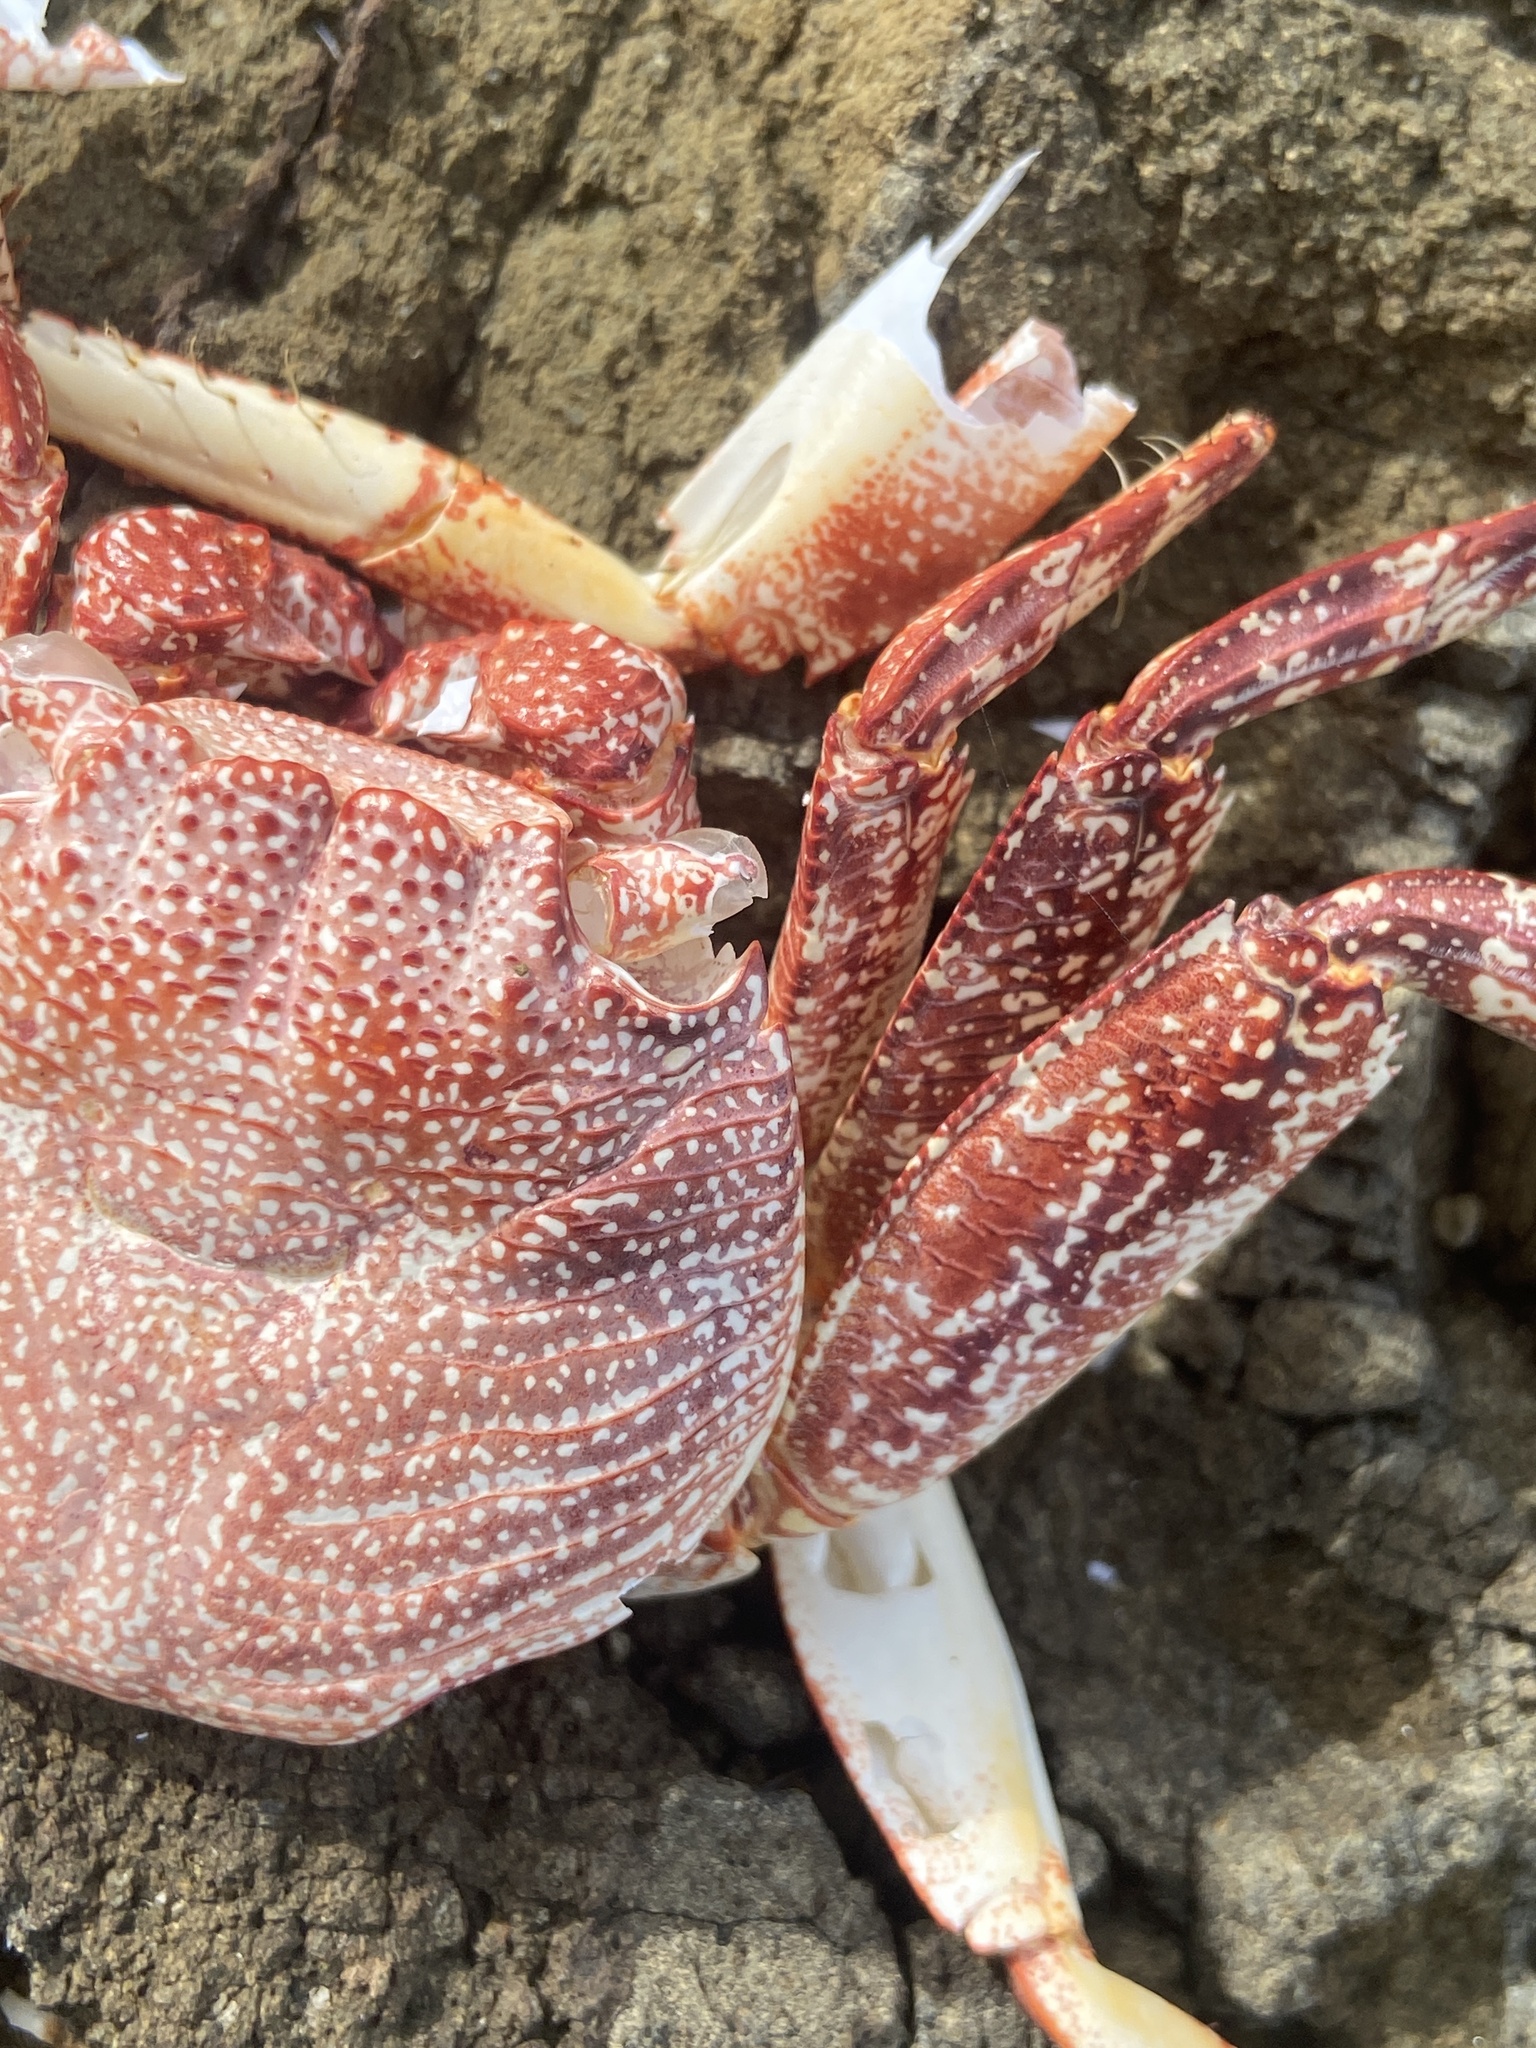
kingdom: Animalia
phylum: Arthropoda
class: Malacostraca
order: Decapoda
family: Grapsidae
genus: Grapsus
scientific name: Grapsus grapsus
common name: Sally lightfoot
